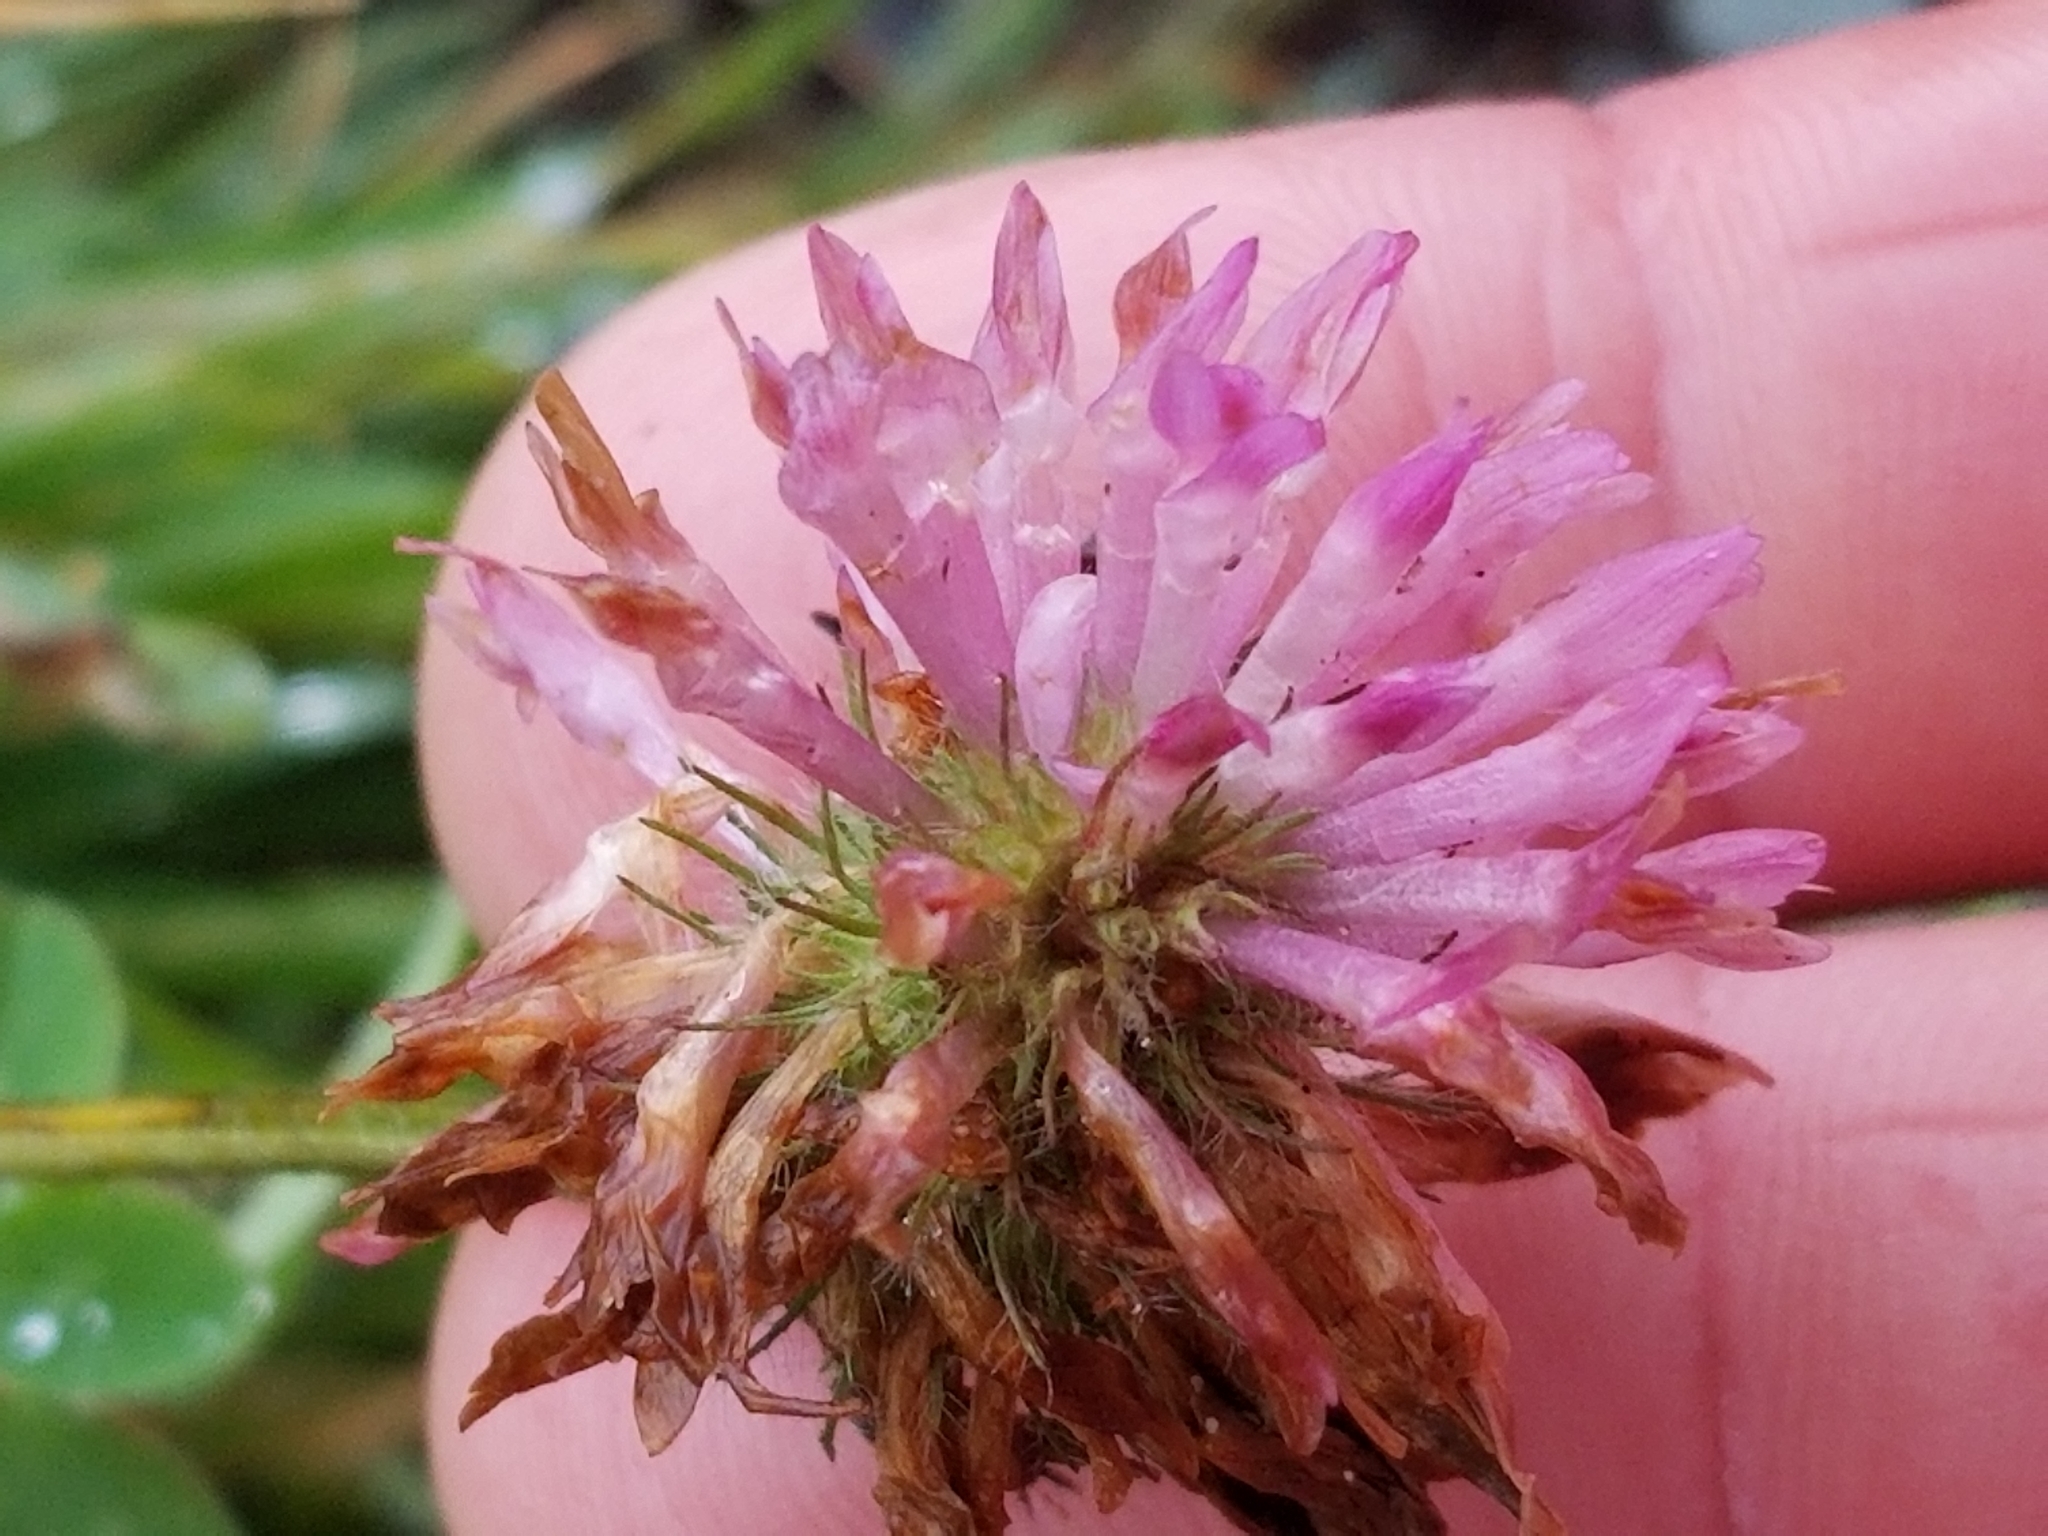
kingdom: Plantae
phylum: Tracheophyta
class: Magnoliopsida
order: Fabales
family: Fabaceae
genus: Trifolium
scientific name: Trifolium pratense
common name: Red clover
